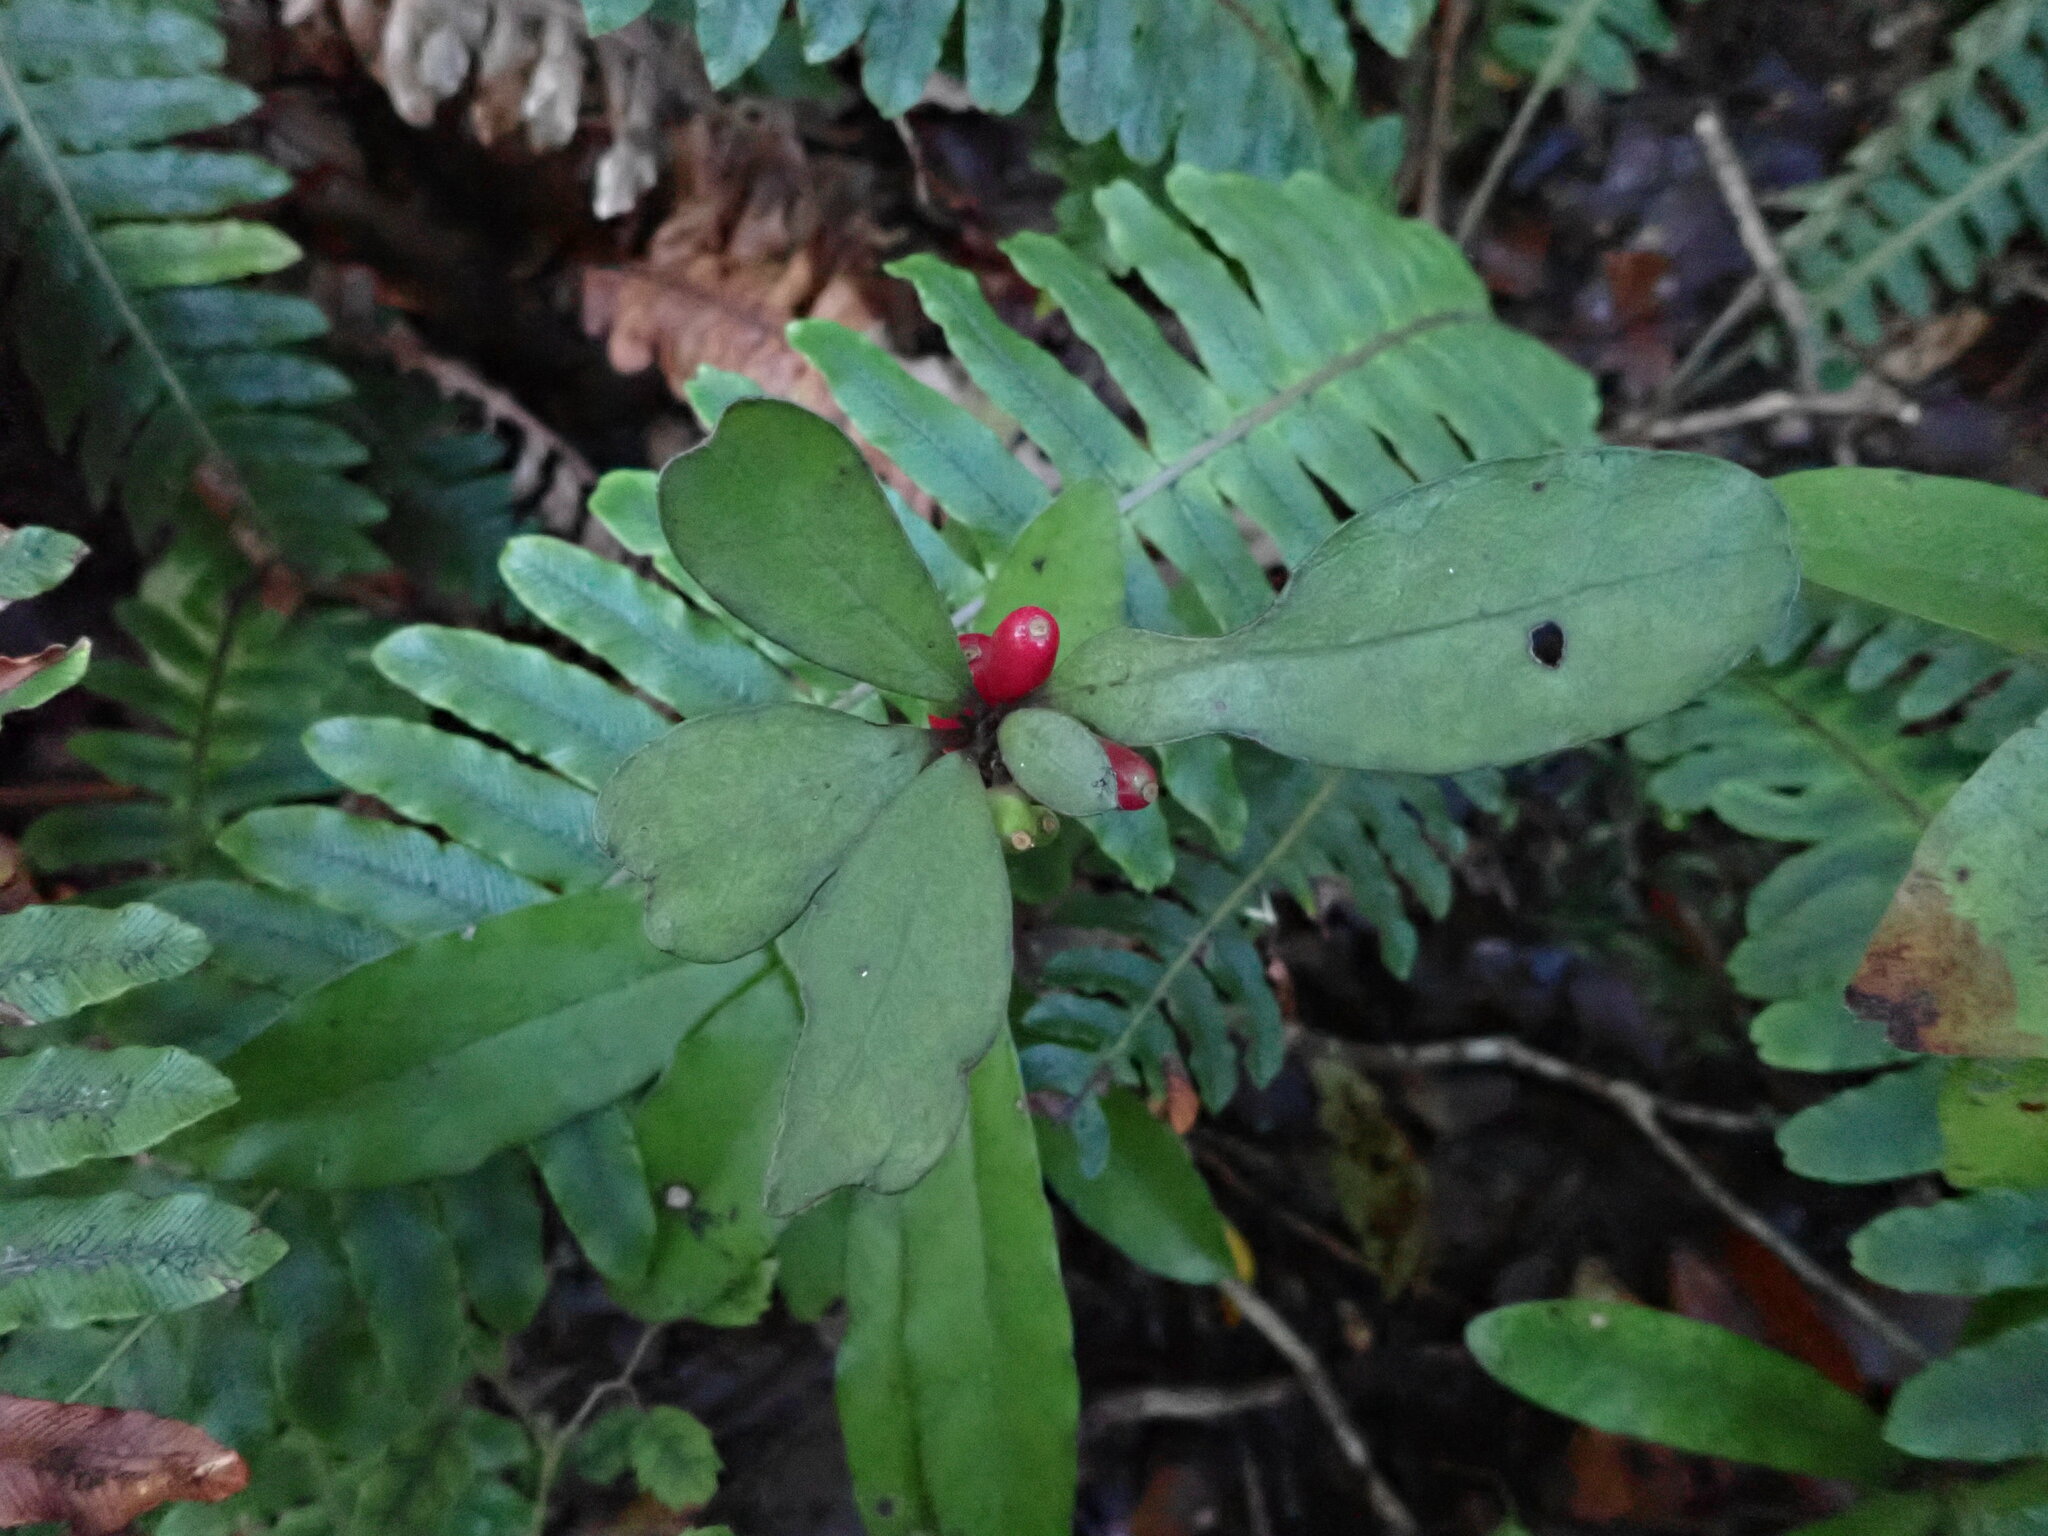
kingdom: Plantae
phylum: Tracheophyta
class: Magnoliopsida
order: Asterales
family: Alseuosmiaceae
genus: Alseuosmia
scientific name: Alseuosmia pusilla
